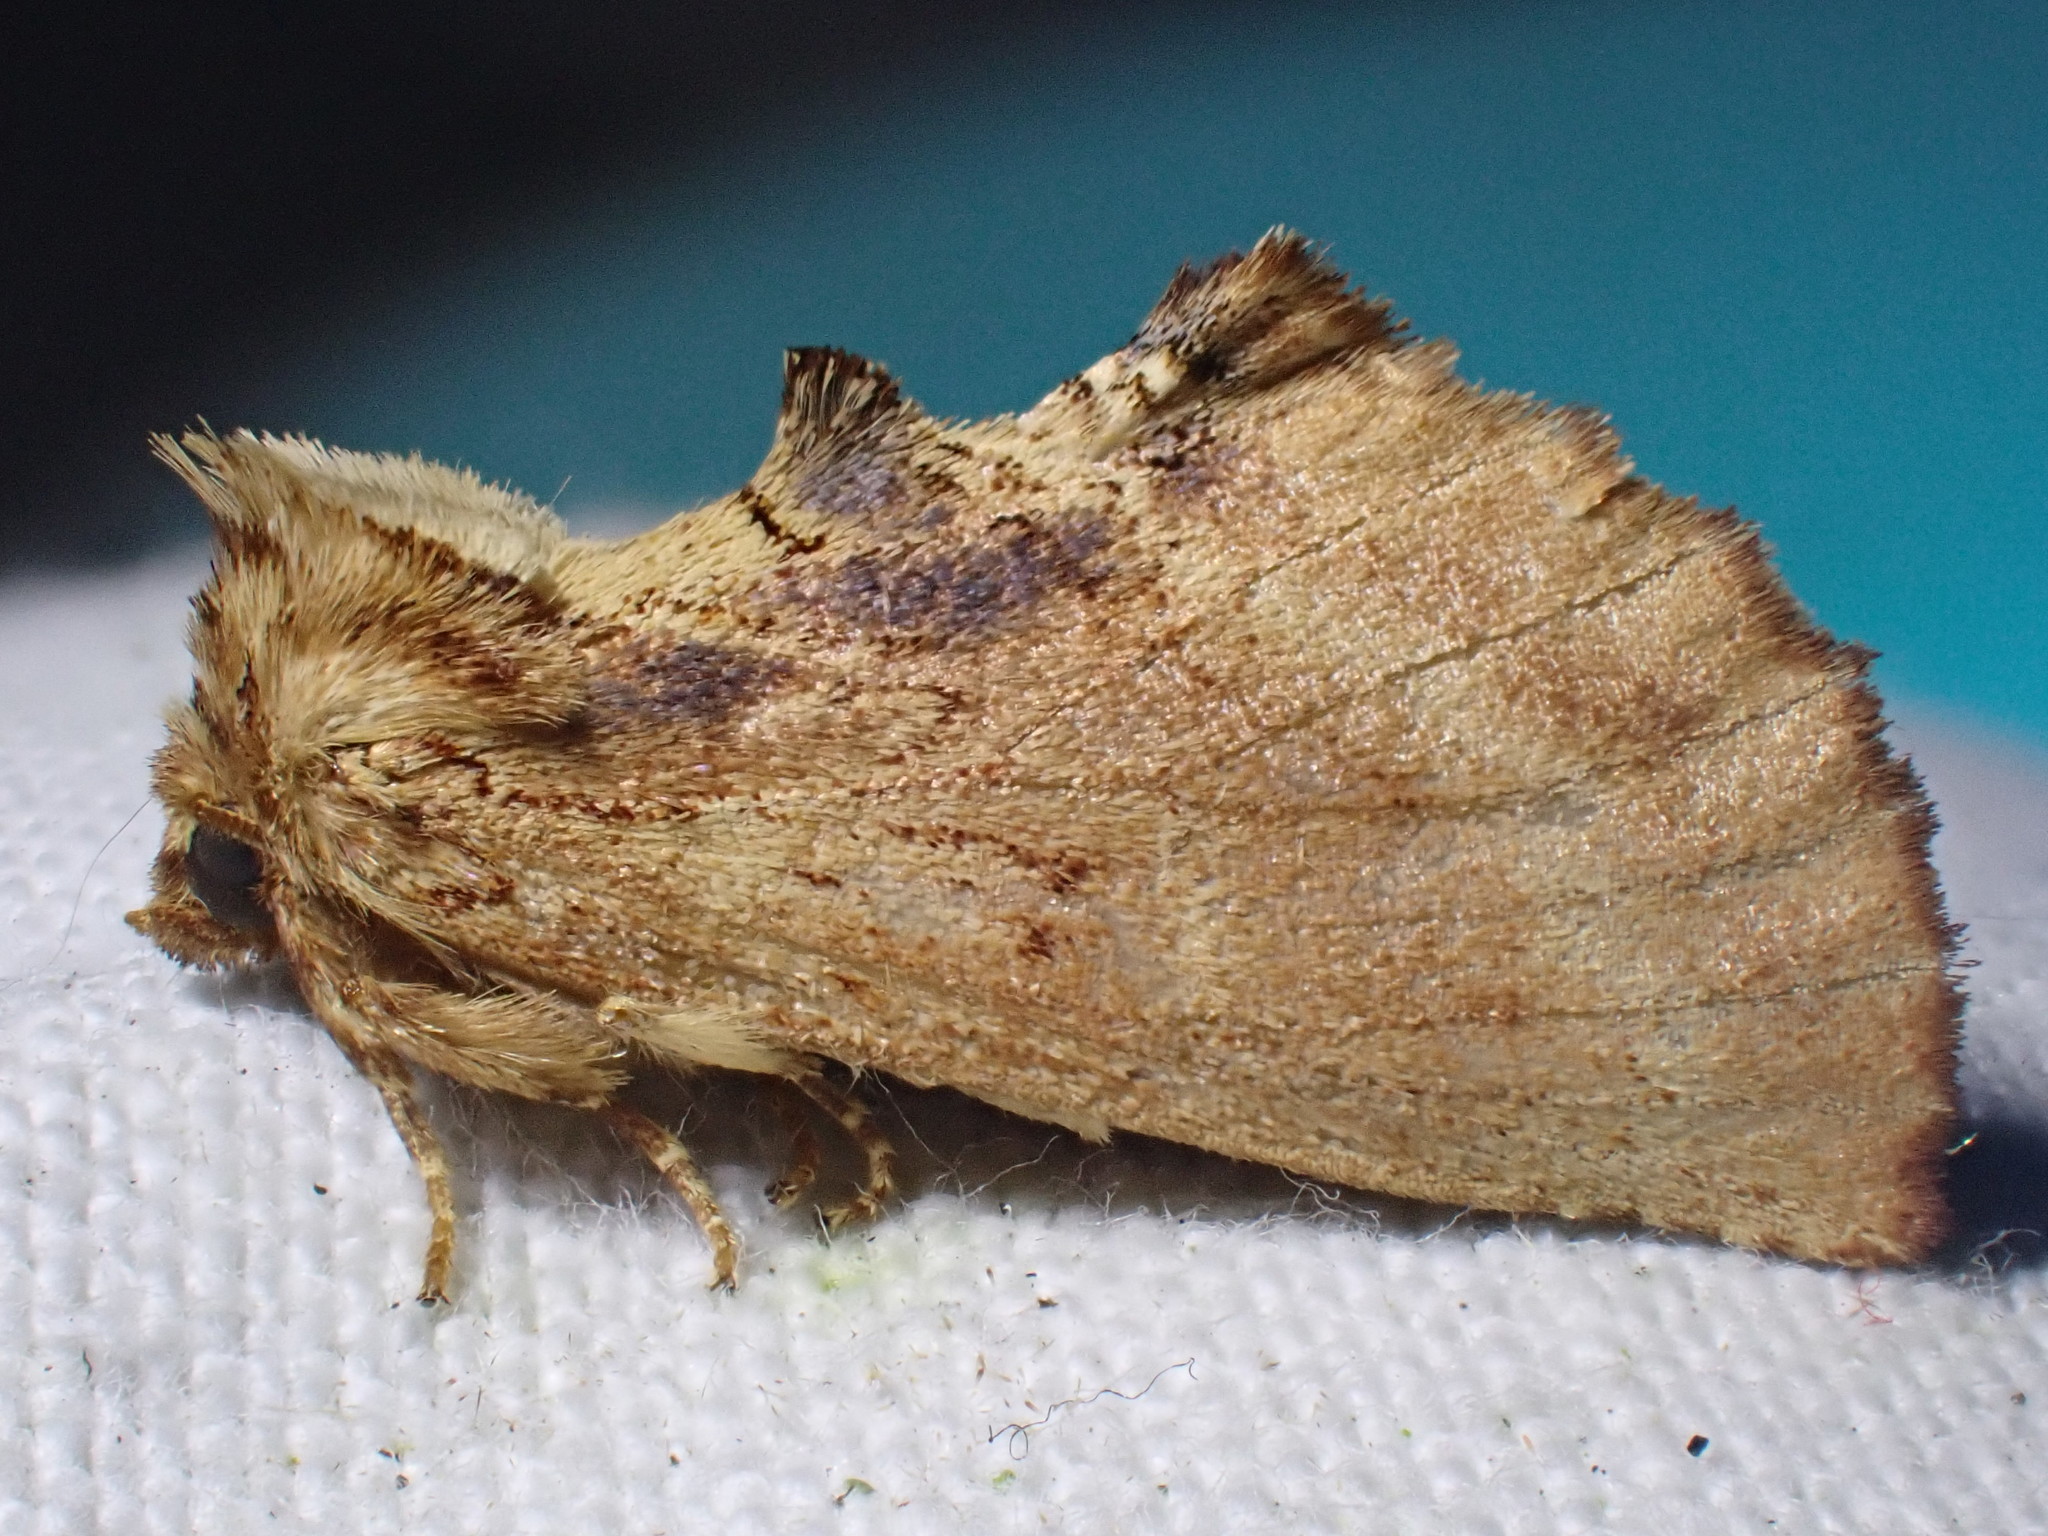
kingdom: Animalia
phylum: Arthropoda
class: Insecta
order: Lepidoptera
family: Notodontidae
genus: Ptilodon
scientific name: Ptilodon capucina
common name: Coxcomb prominent
